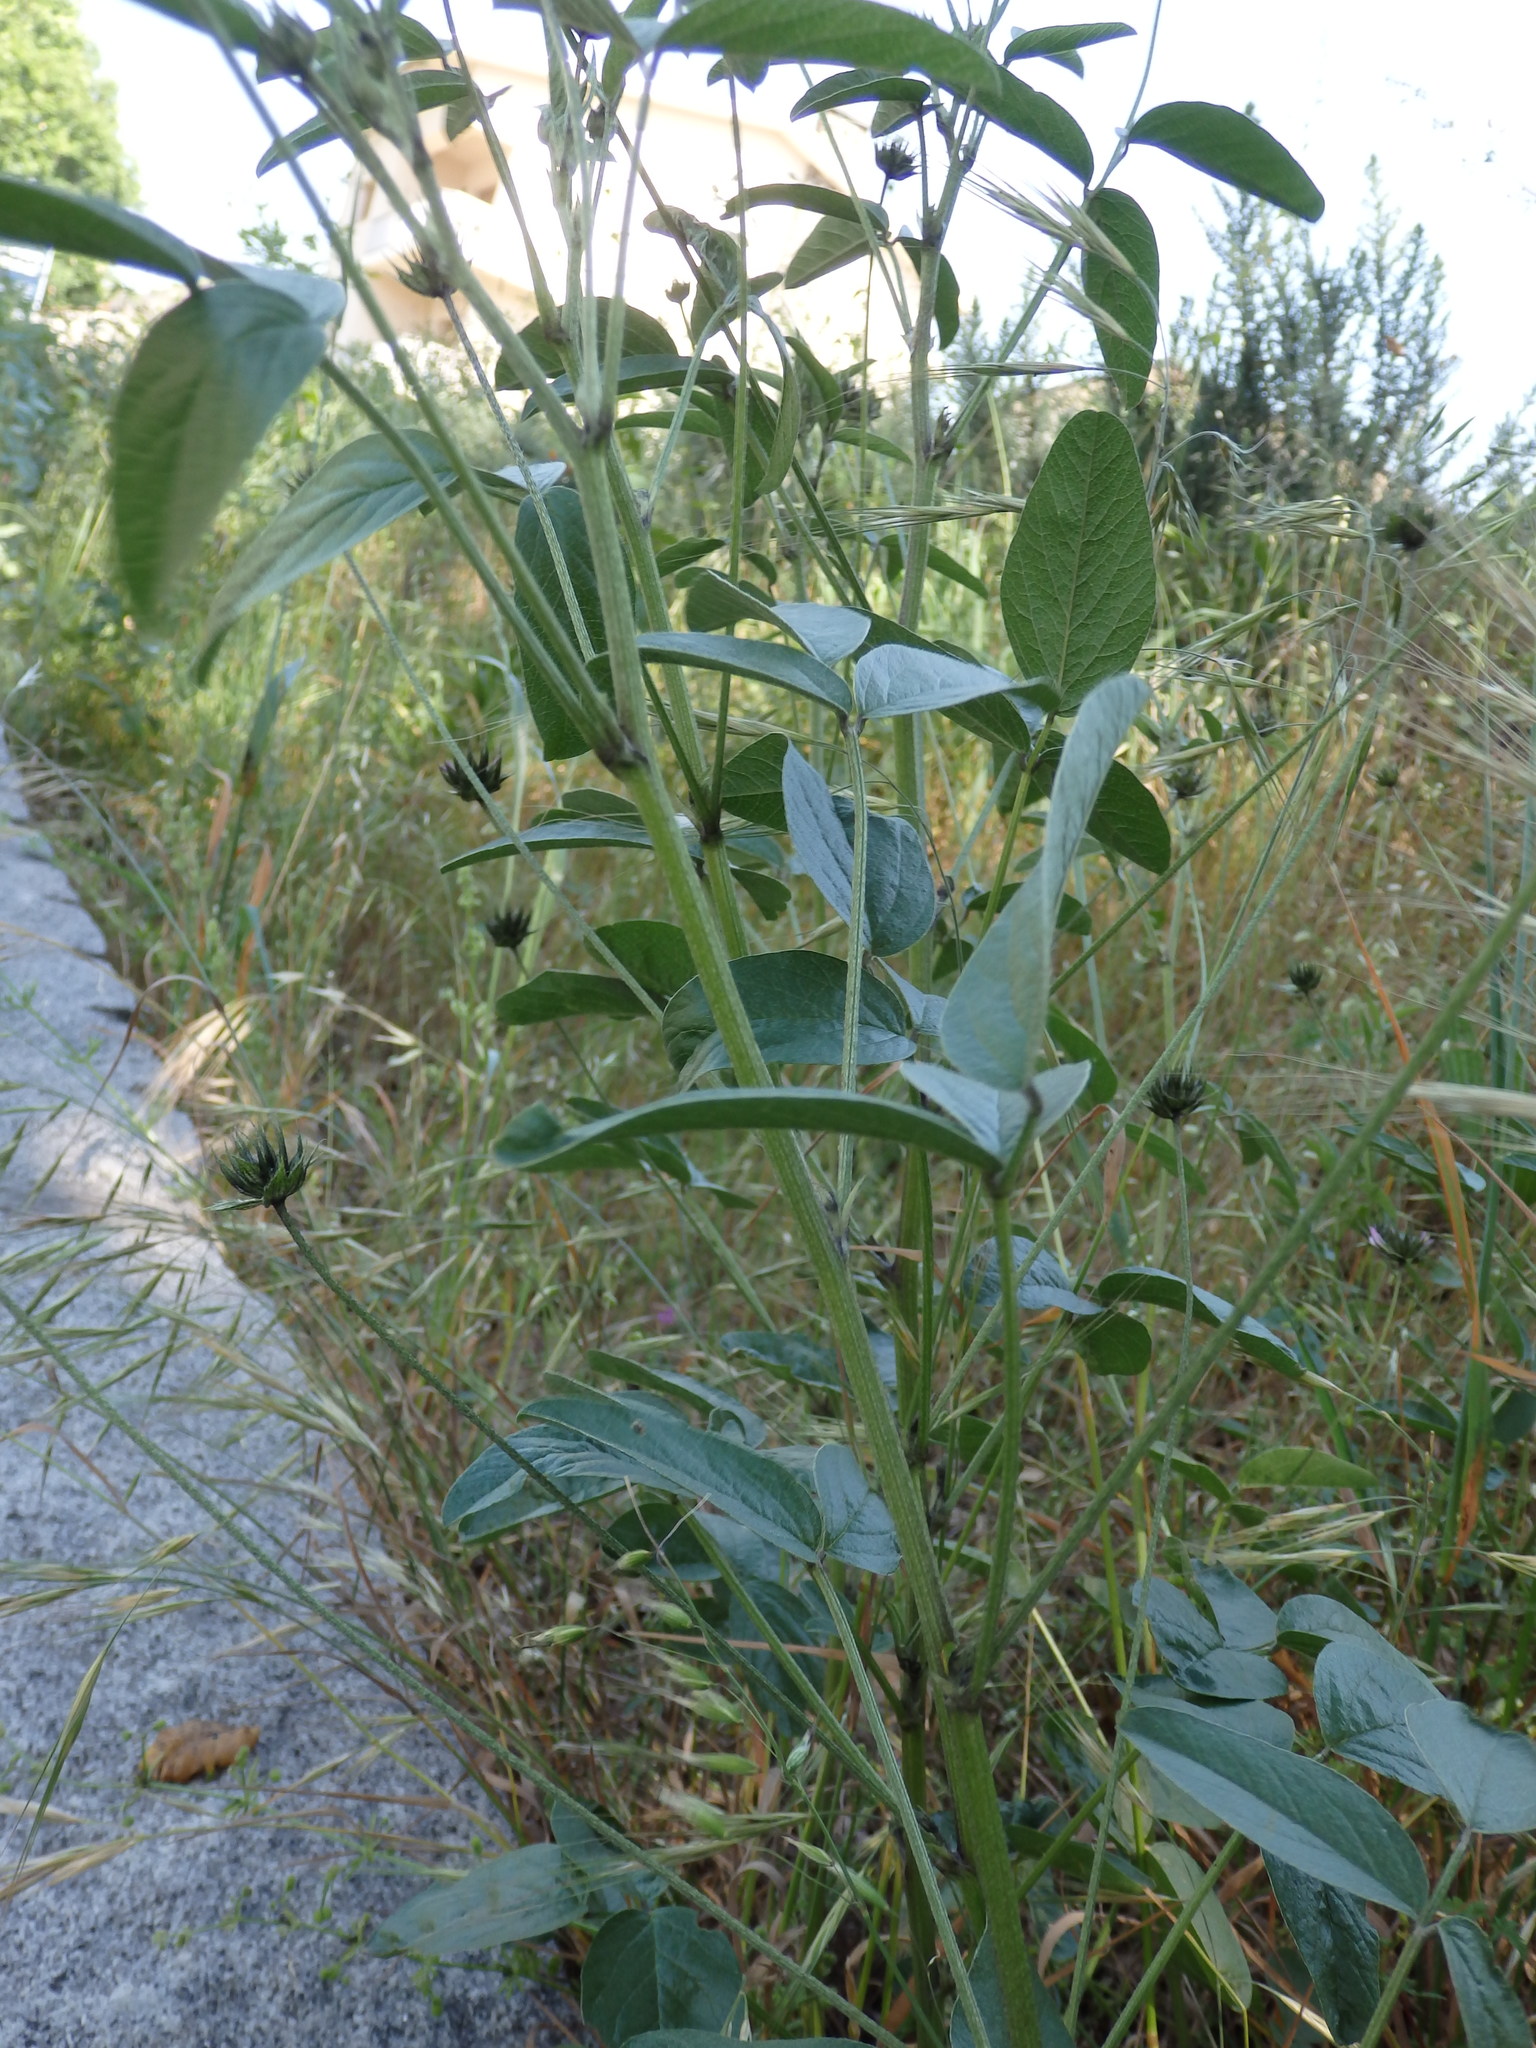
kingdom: Plantae
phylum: Tracheophyta
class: Magnoliopsida
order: Fabales
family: Fabaceae
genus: Bituminaria
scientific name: Bituminaria bituminosa
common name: Arabian pea
